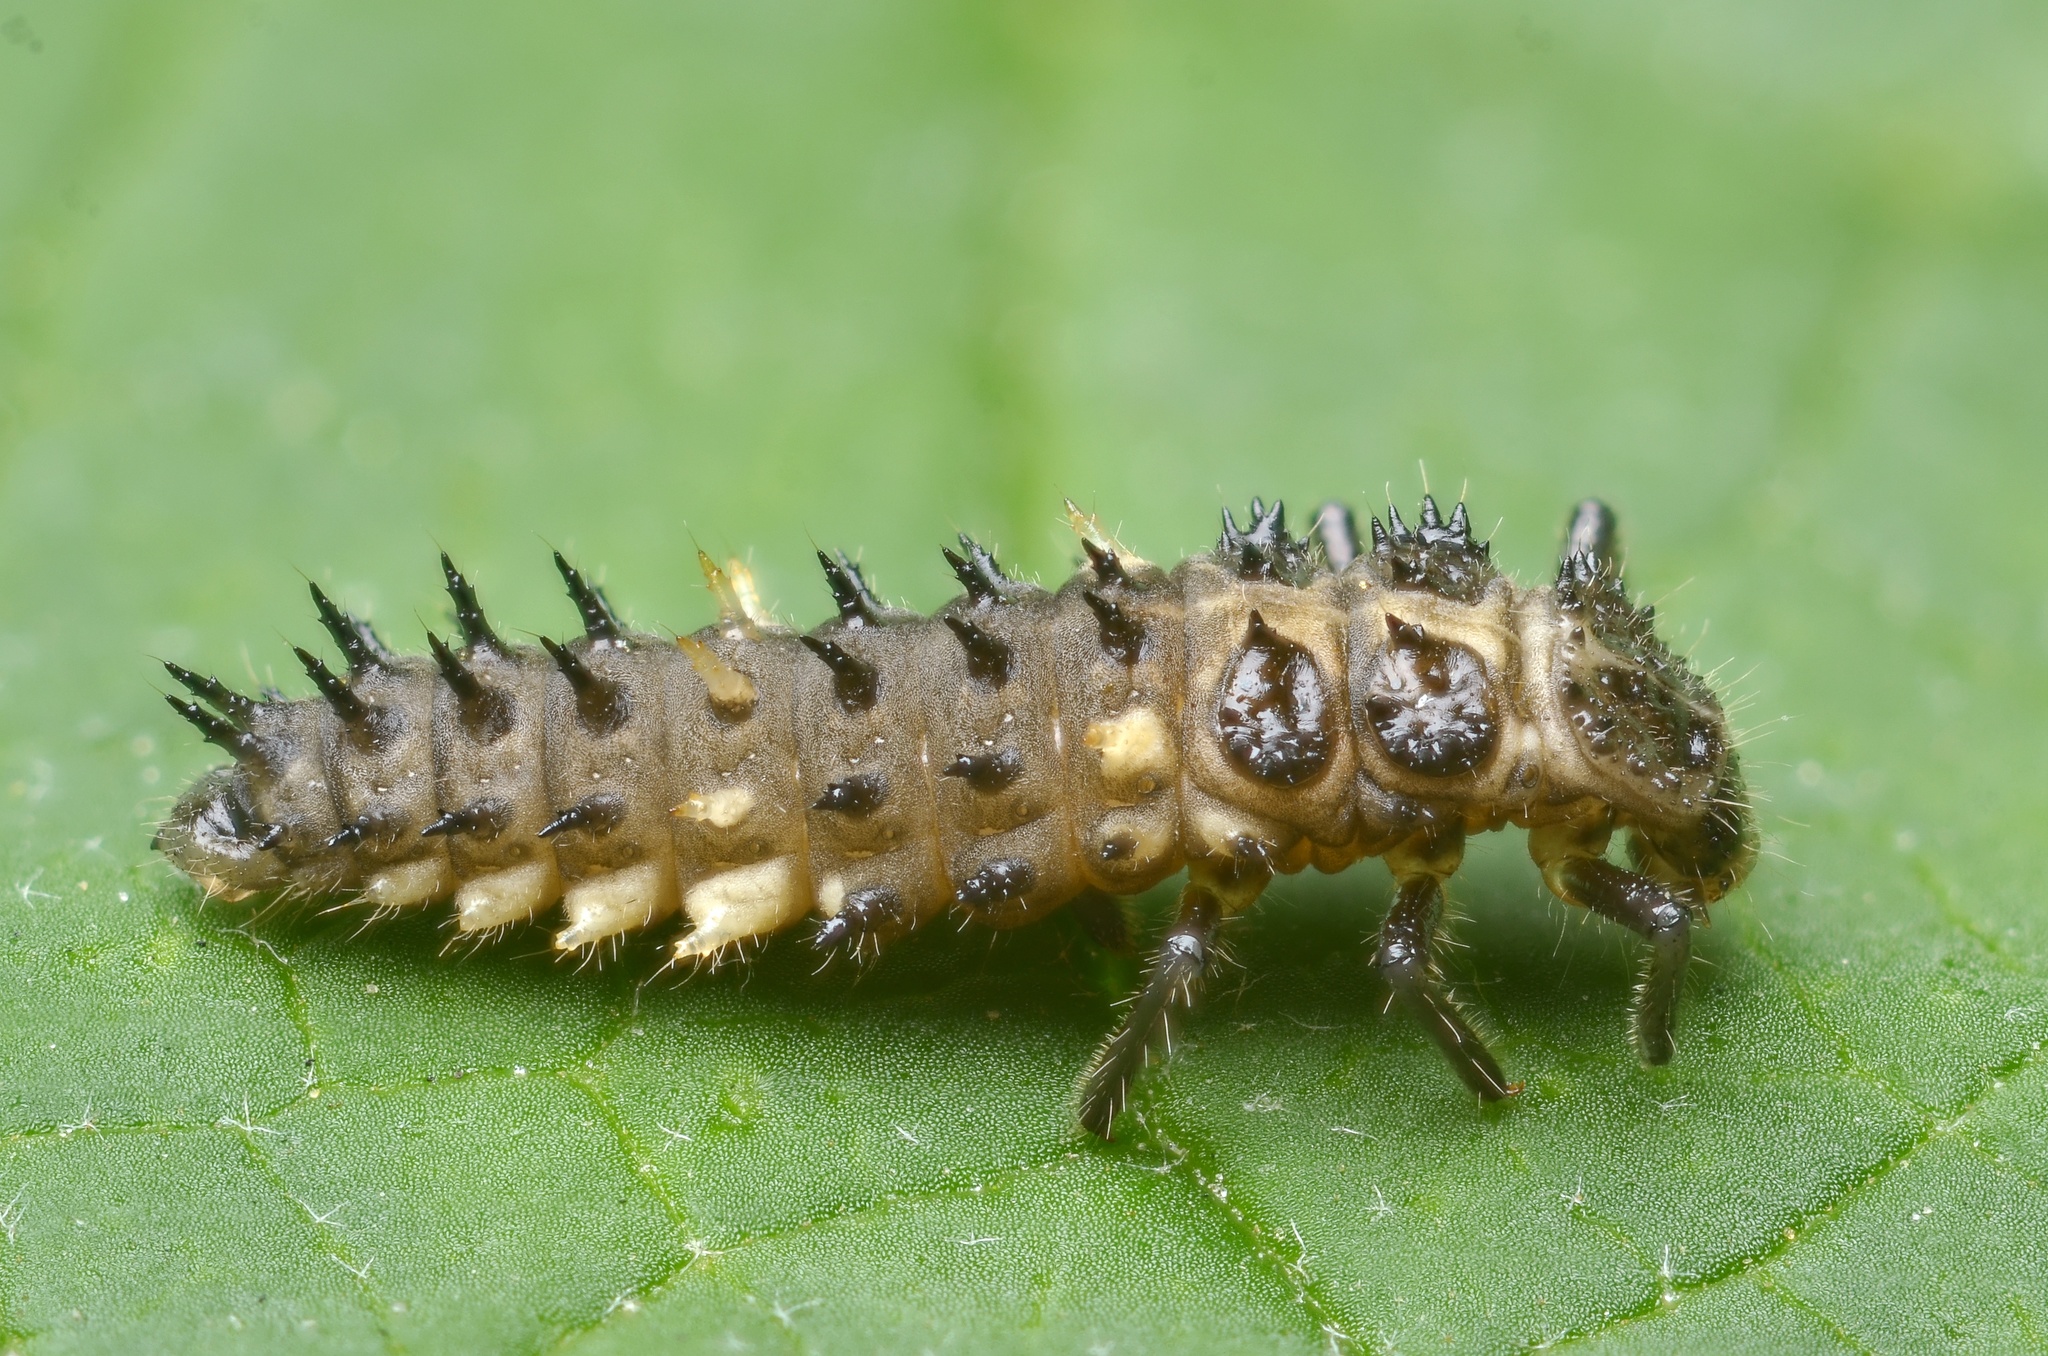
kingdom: Animalia
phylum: Arthropoda
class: Insecta
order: Coleoptera
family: Coccinellidae
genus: Calvia
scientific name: Calvia quatuordecimguttata
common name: Cream-spot ladybird
